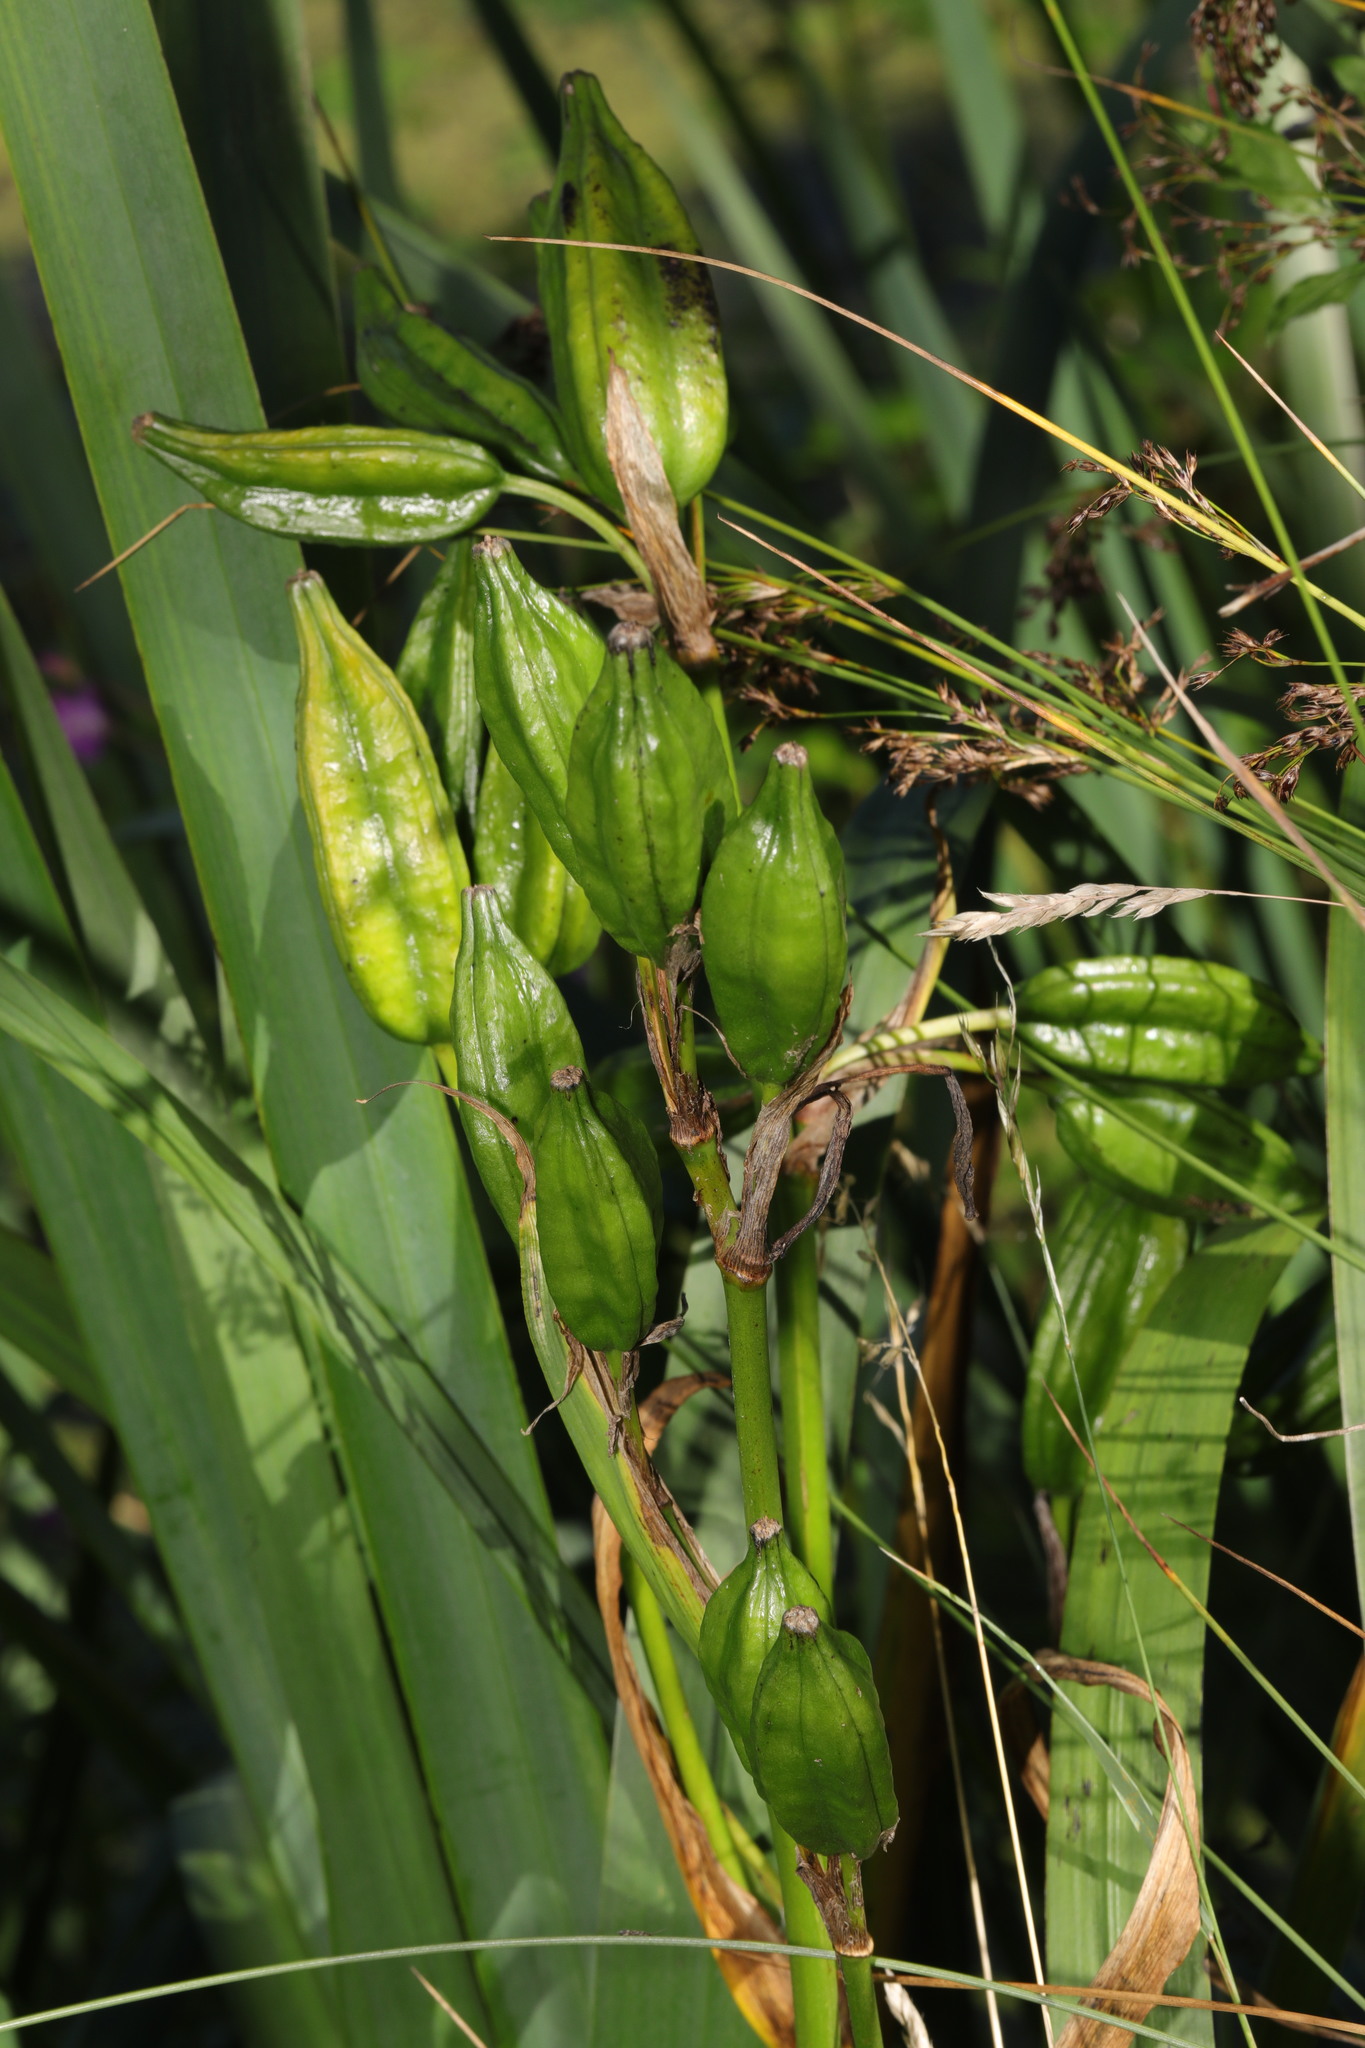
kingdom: Plantae
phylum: Tracheophyta
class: Liliopsida
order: Asparagales
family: Iridaceae
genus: Iris
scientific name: Iris pseudacorus
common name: Yellow flag
